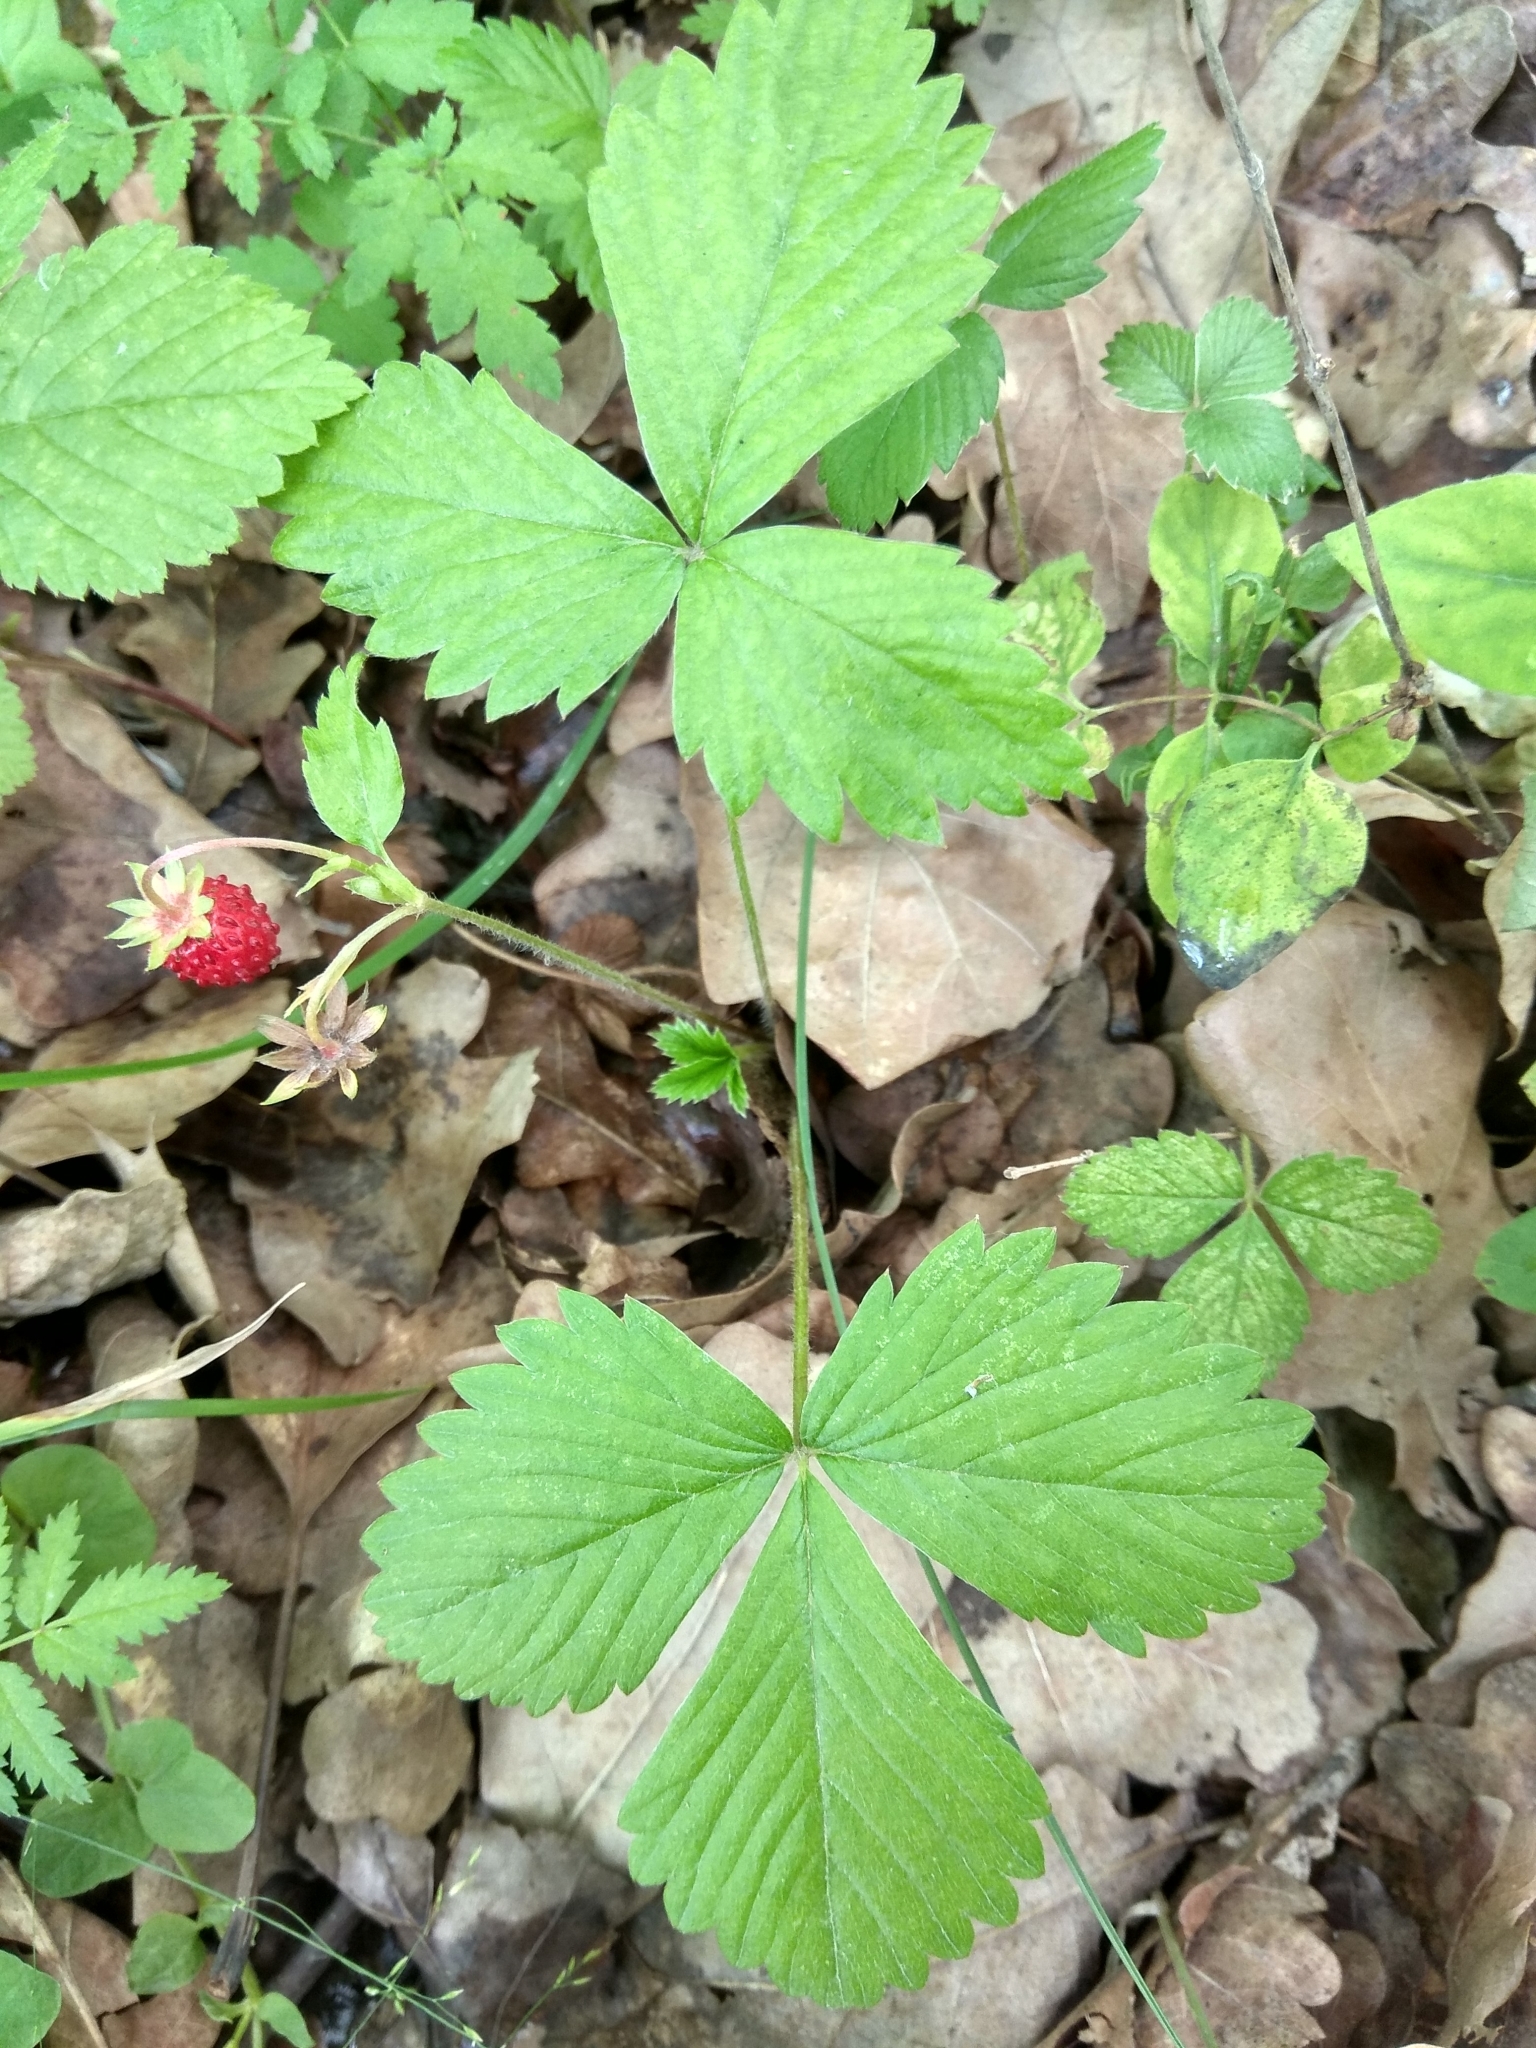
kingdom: Plantae
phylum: Tracheophyta
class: Magnoliopsida
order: Rosales
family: Rosaceae
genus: Fragaria
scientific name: Fragaria vesca
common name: Wild strawberry
